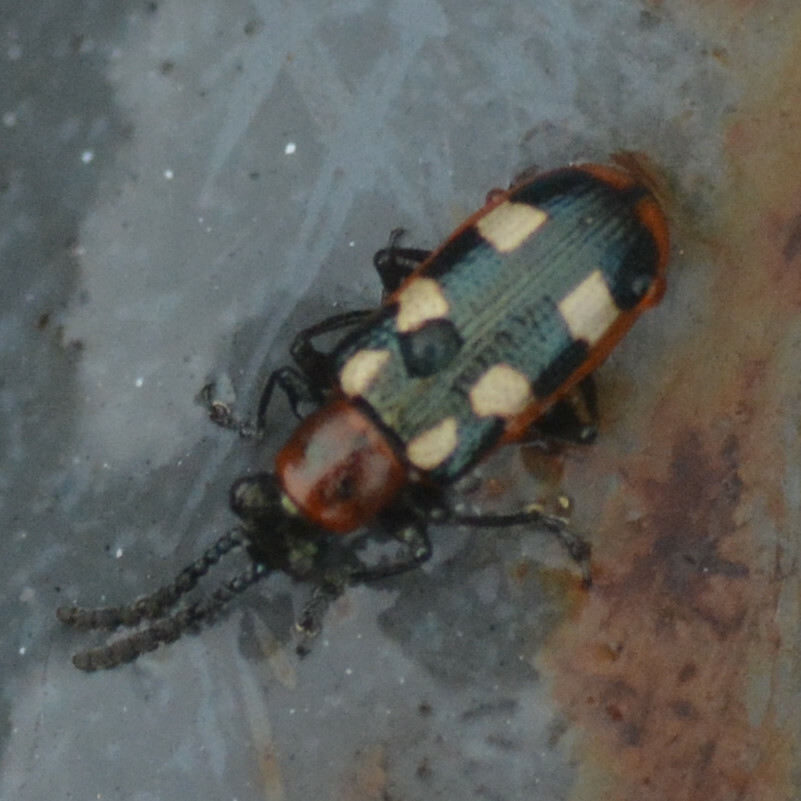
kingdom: Animalia
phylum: Arthropoda
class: Insecta
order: Coleoptera
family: Chrysomelidae
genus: Crioceris
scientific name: Crioceris asparagi
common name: Asparagus beetle
